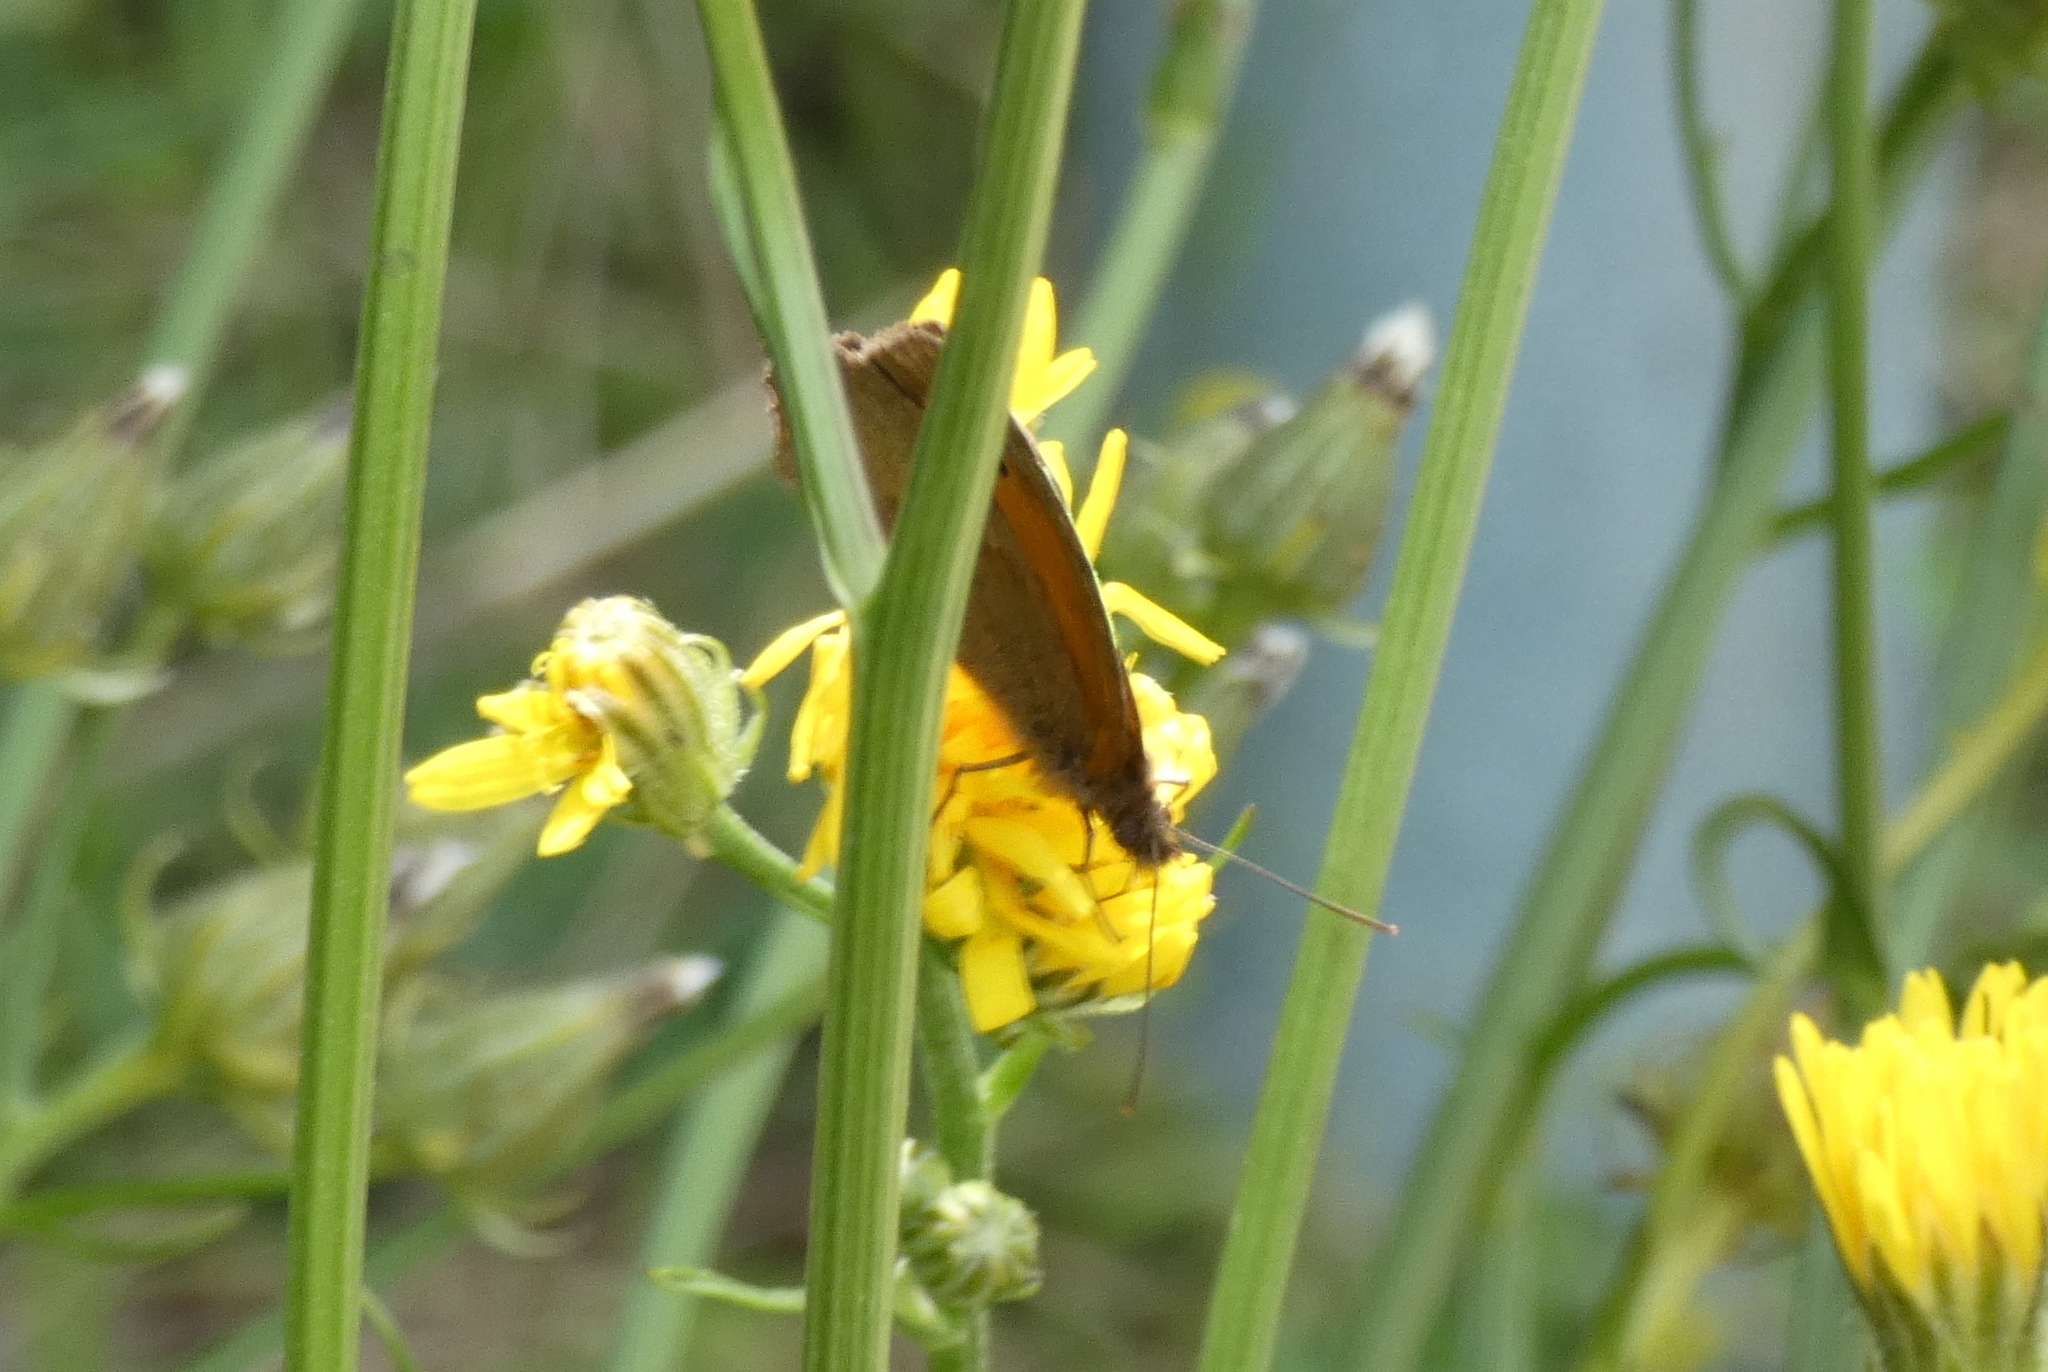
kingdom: Animalia
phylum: Arthropoda
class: Insecta
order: Lepidoptera
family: Nymphalidae
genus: Maniola
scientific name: Maniola jurtina
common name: Meadow brown
